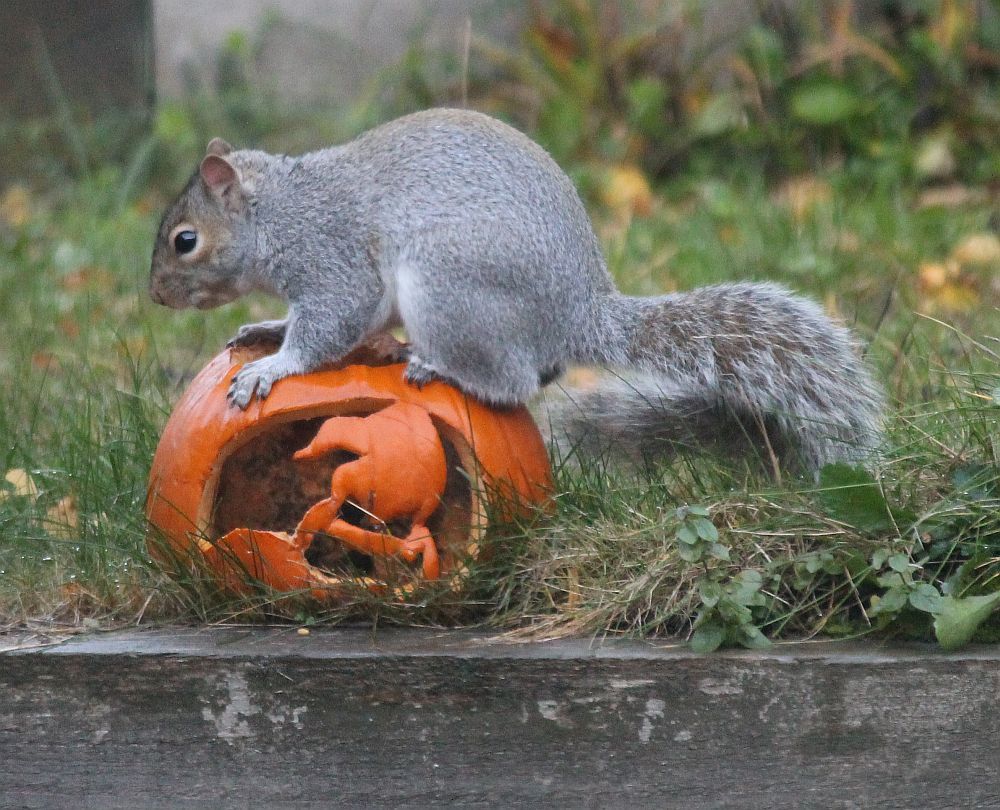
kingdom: Animalia
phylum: Chordata
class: Mammalia
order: Rodentia
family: Sciuridae
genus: Sciurus
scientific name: Sciurus carolinensis
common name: Eastern gray squirrel
